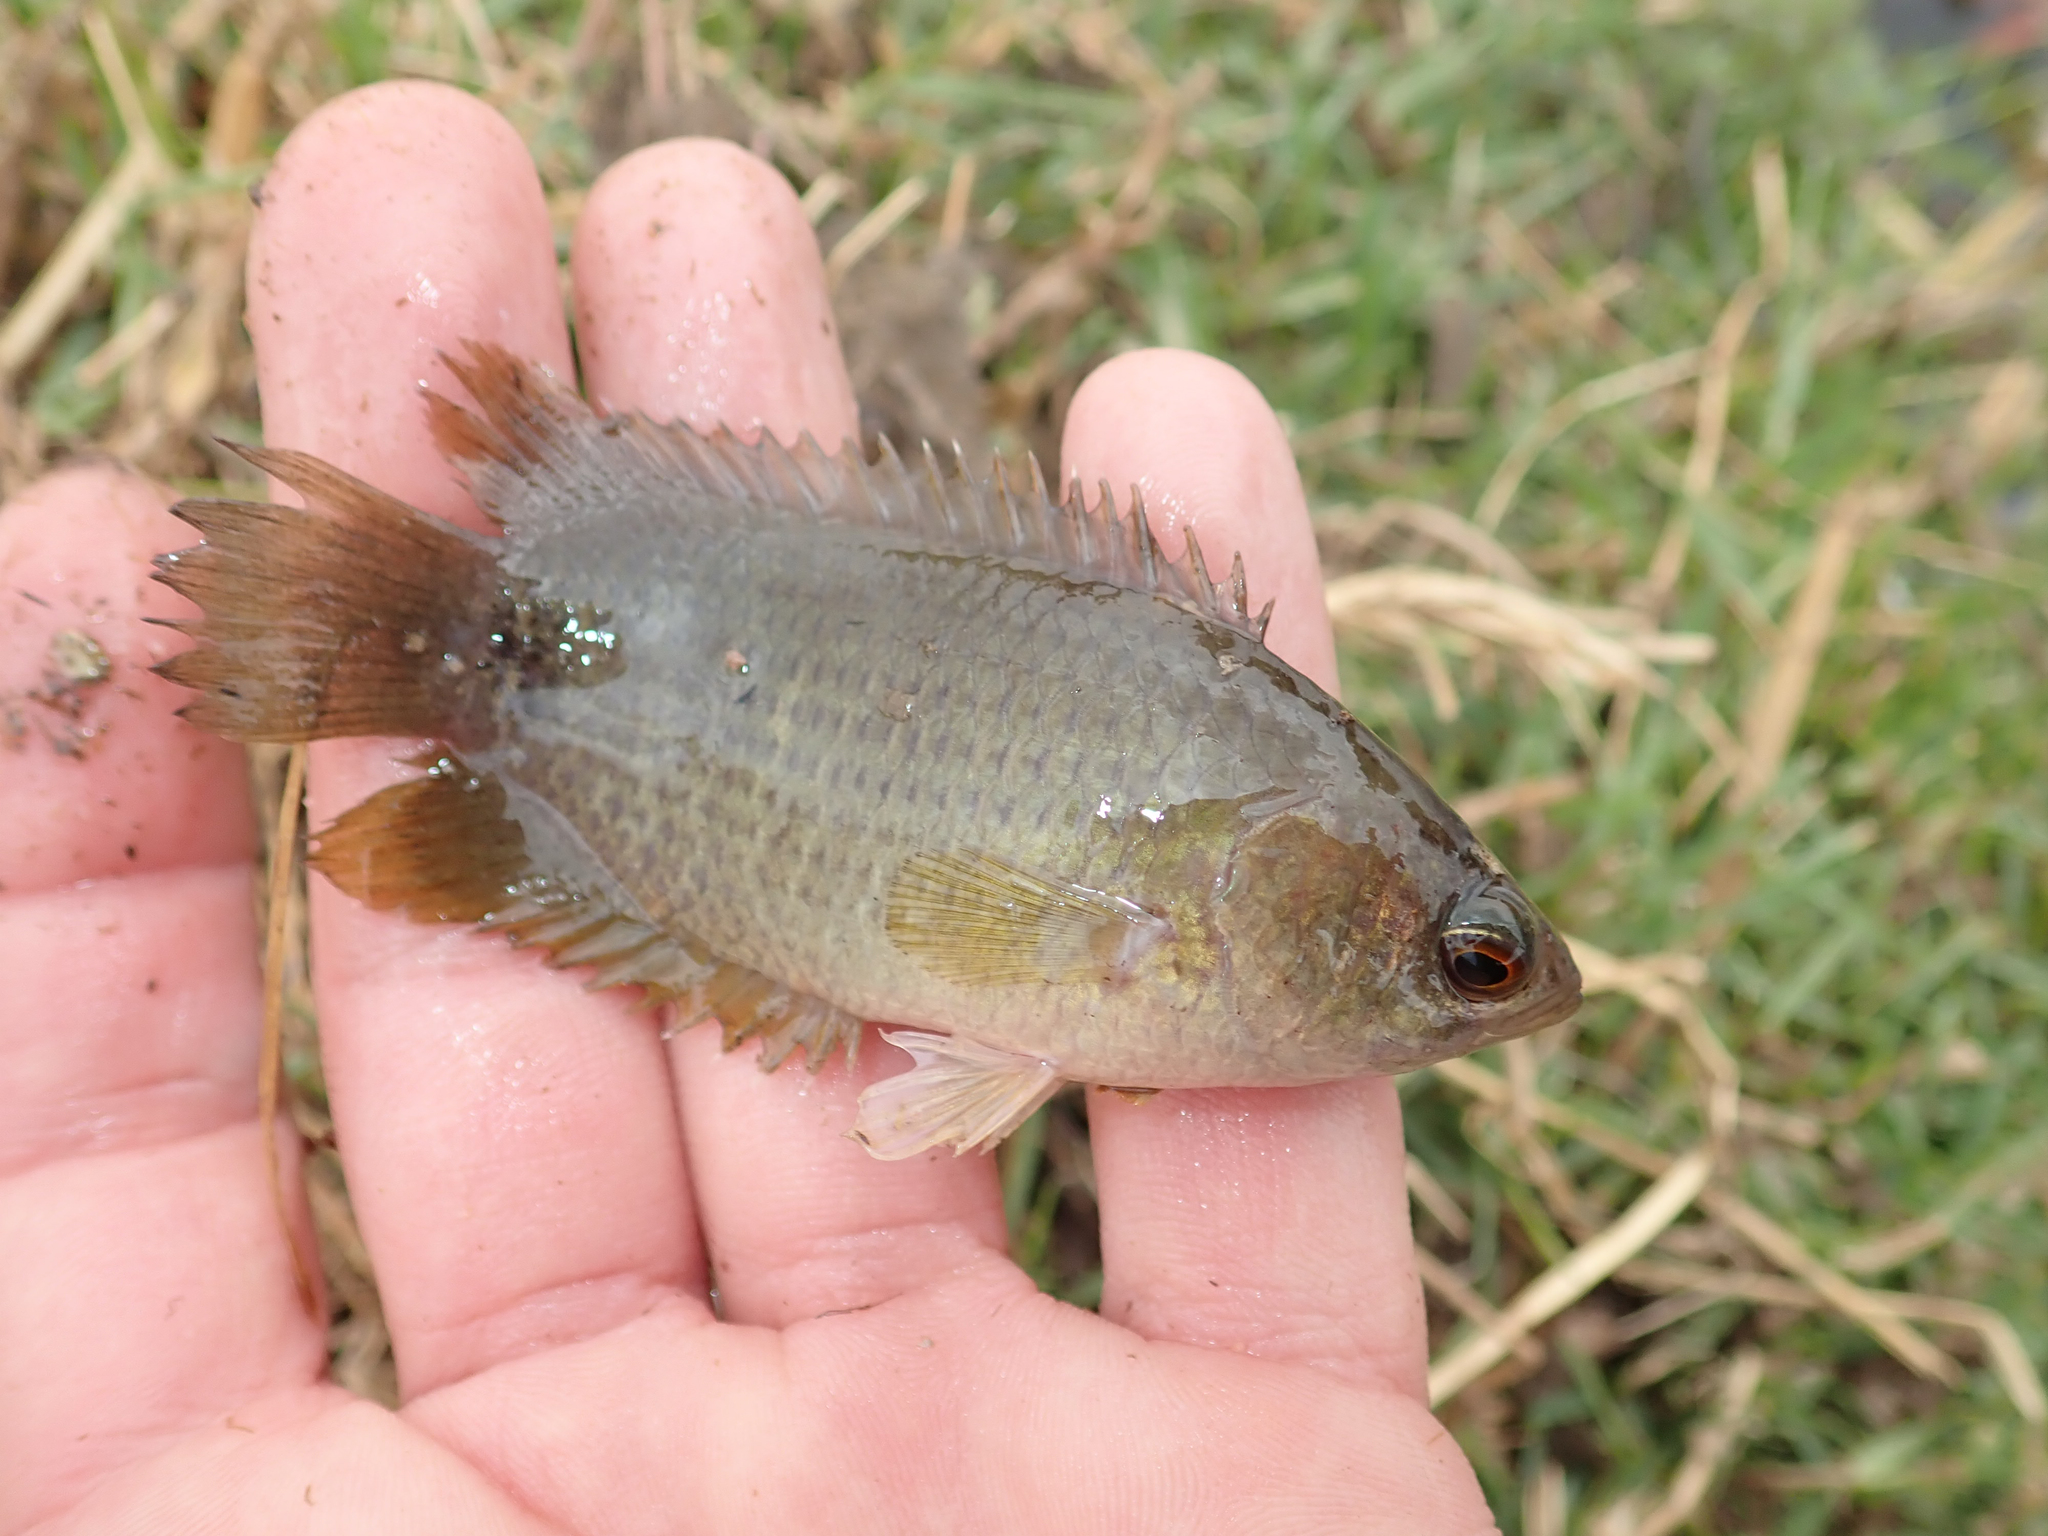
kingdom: Animalia
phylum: Chordata
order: Perciformes
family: Anabantidae
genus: Ctenopoma
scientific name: Ctenopoma petherici
